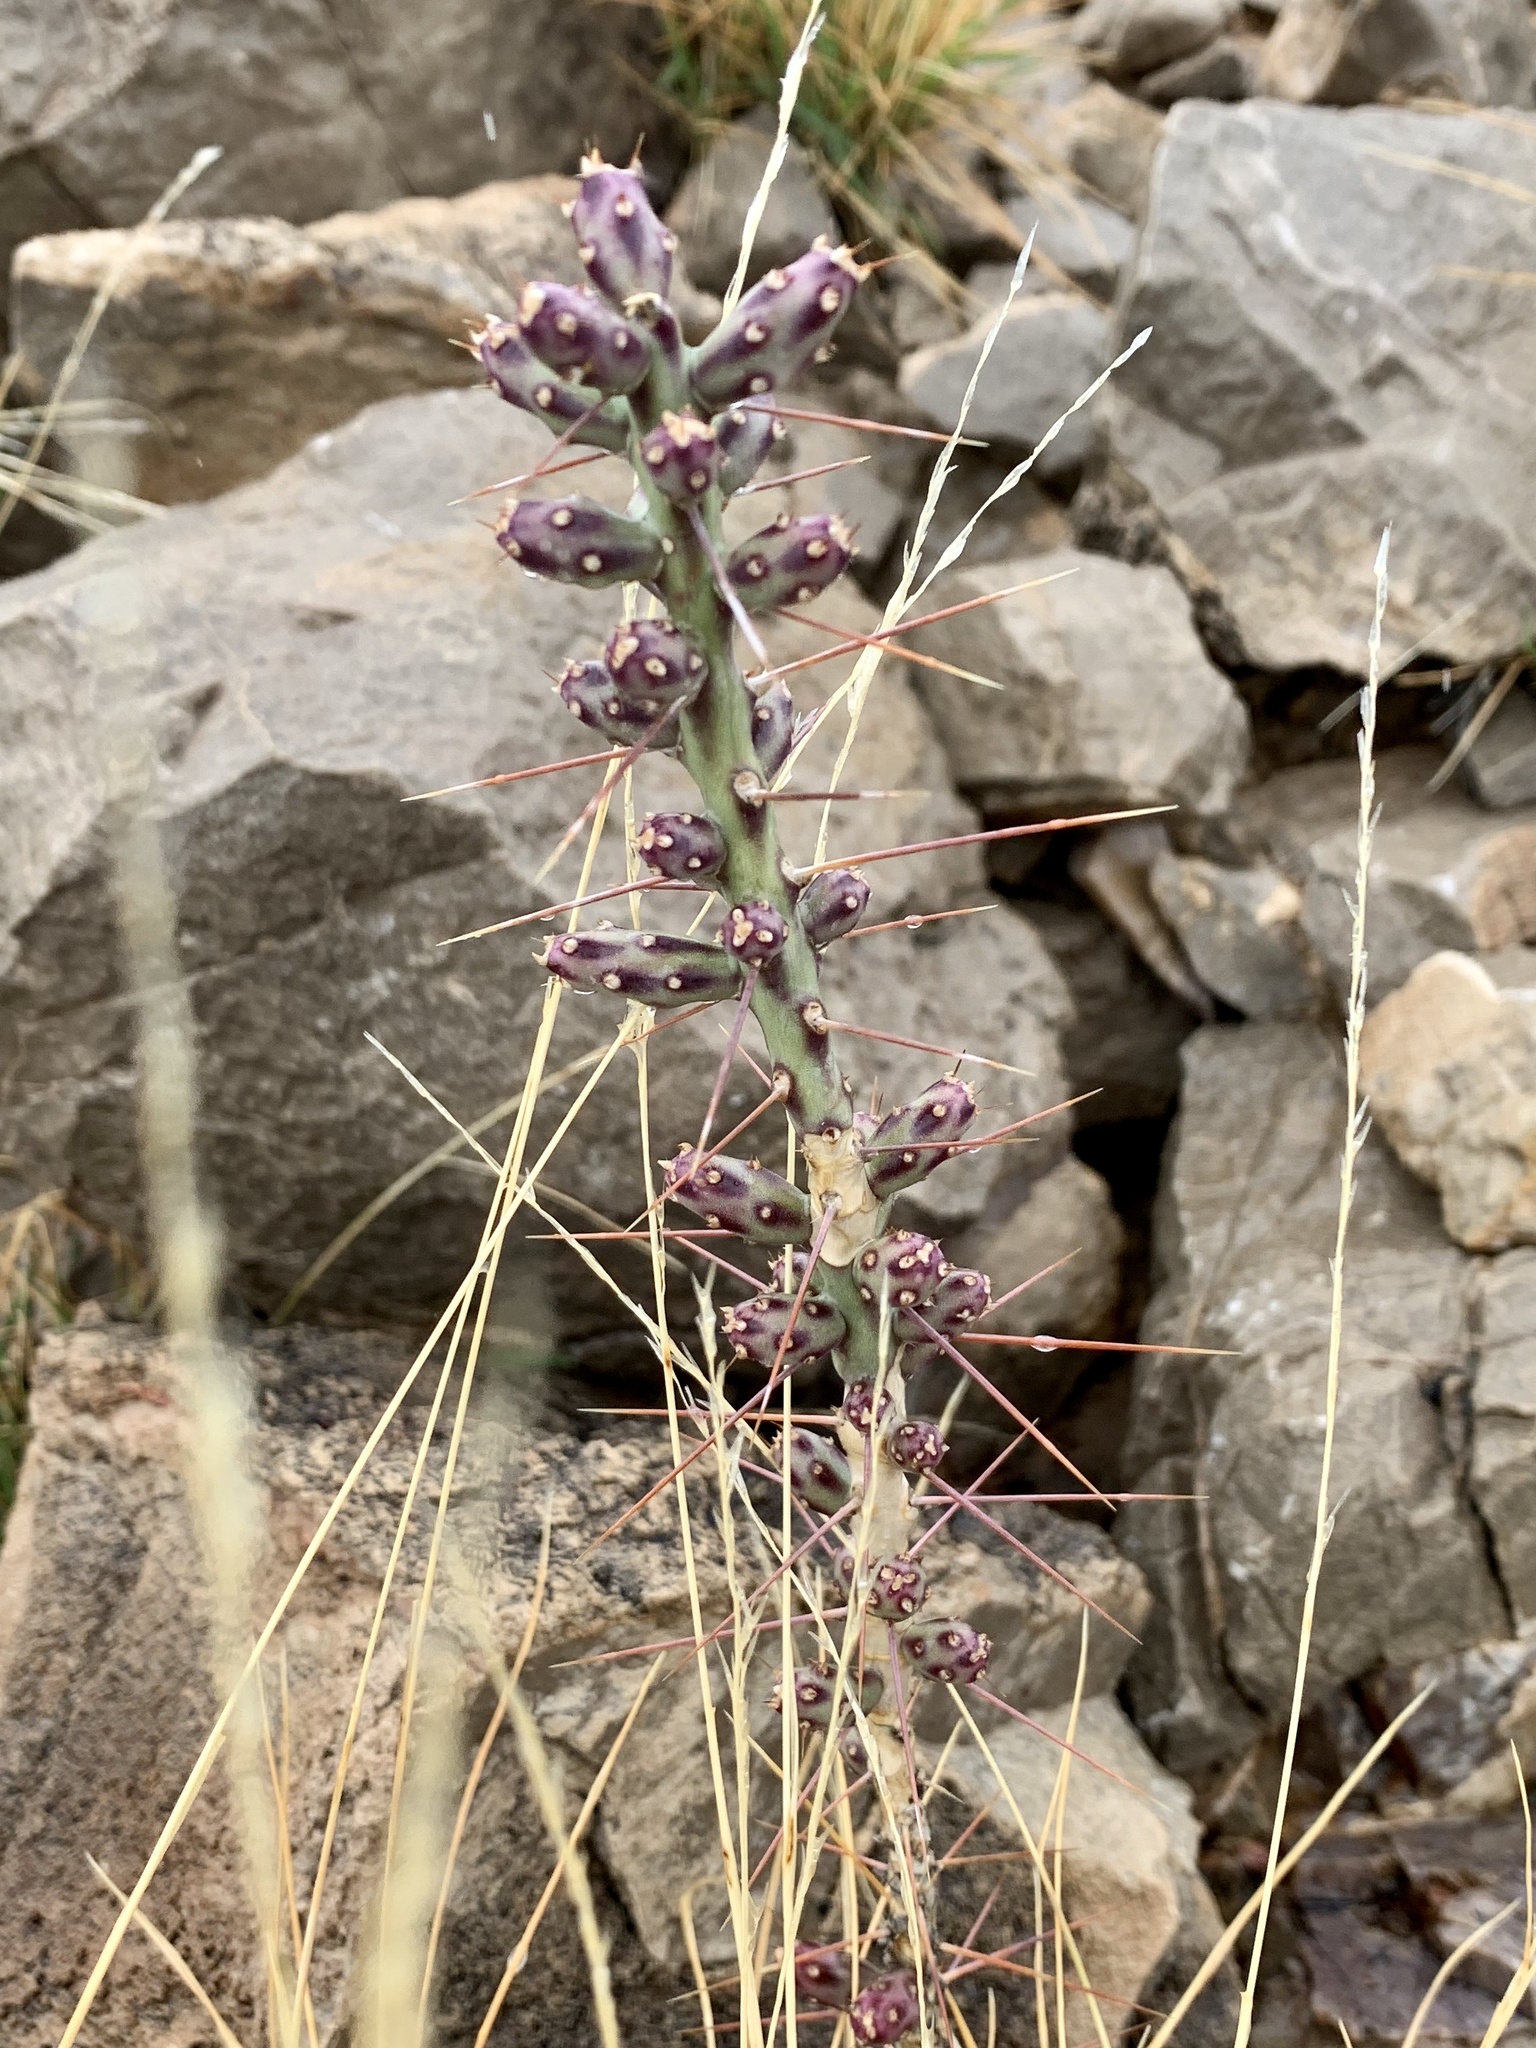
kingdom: Plantae
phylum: Tracheophyta
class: Magnoliopsida
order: Caryophyllales
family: Cactaceae
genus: Cylindropuntia
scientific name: Cylindropuntia leptocaulis
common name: Christmas cactus
